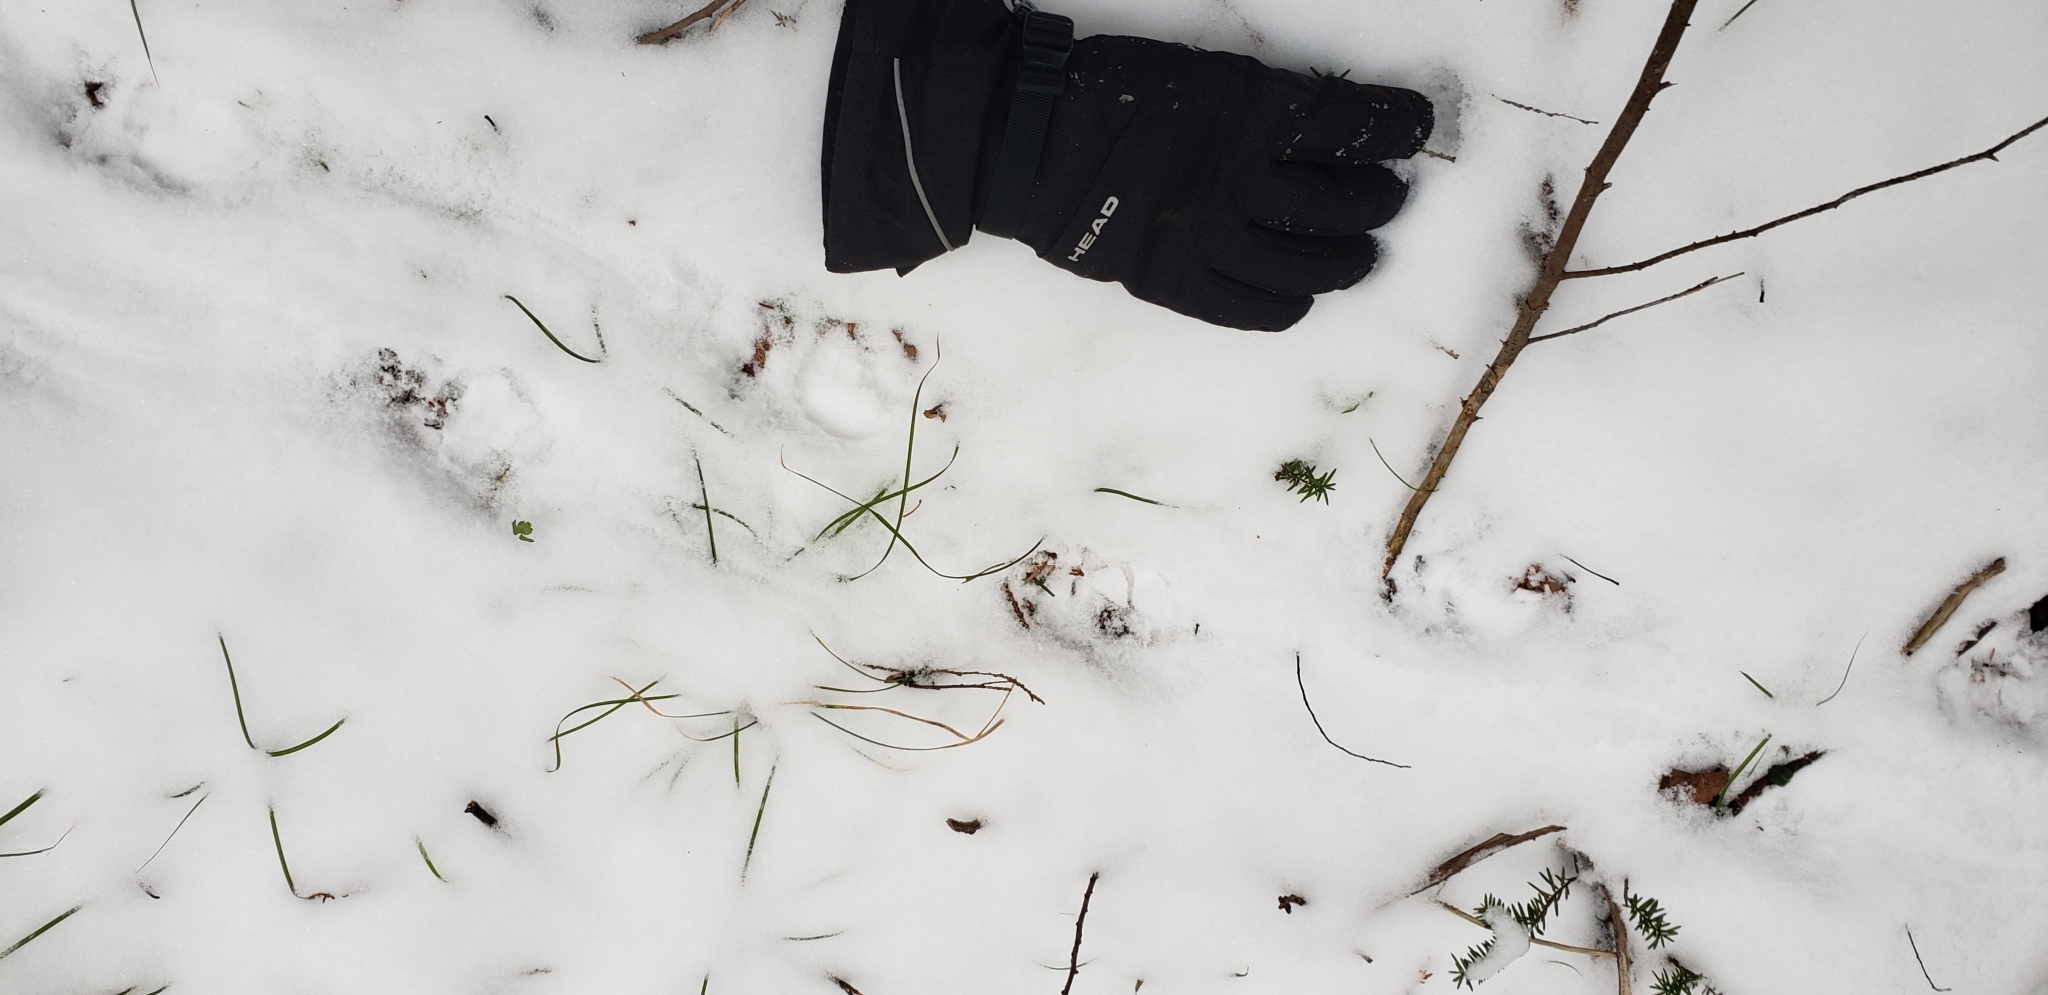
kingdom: Animalia
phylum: Chordata
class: Mammalia
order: Rodentia
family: Erethizontidae
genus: Erethizon
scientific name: Erethizon dorsatus
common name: North american porcupine
